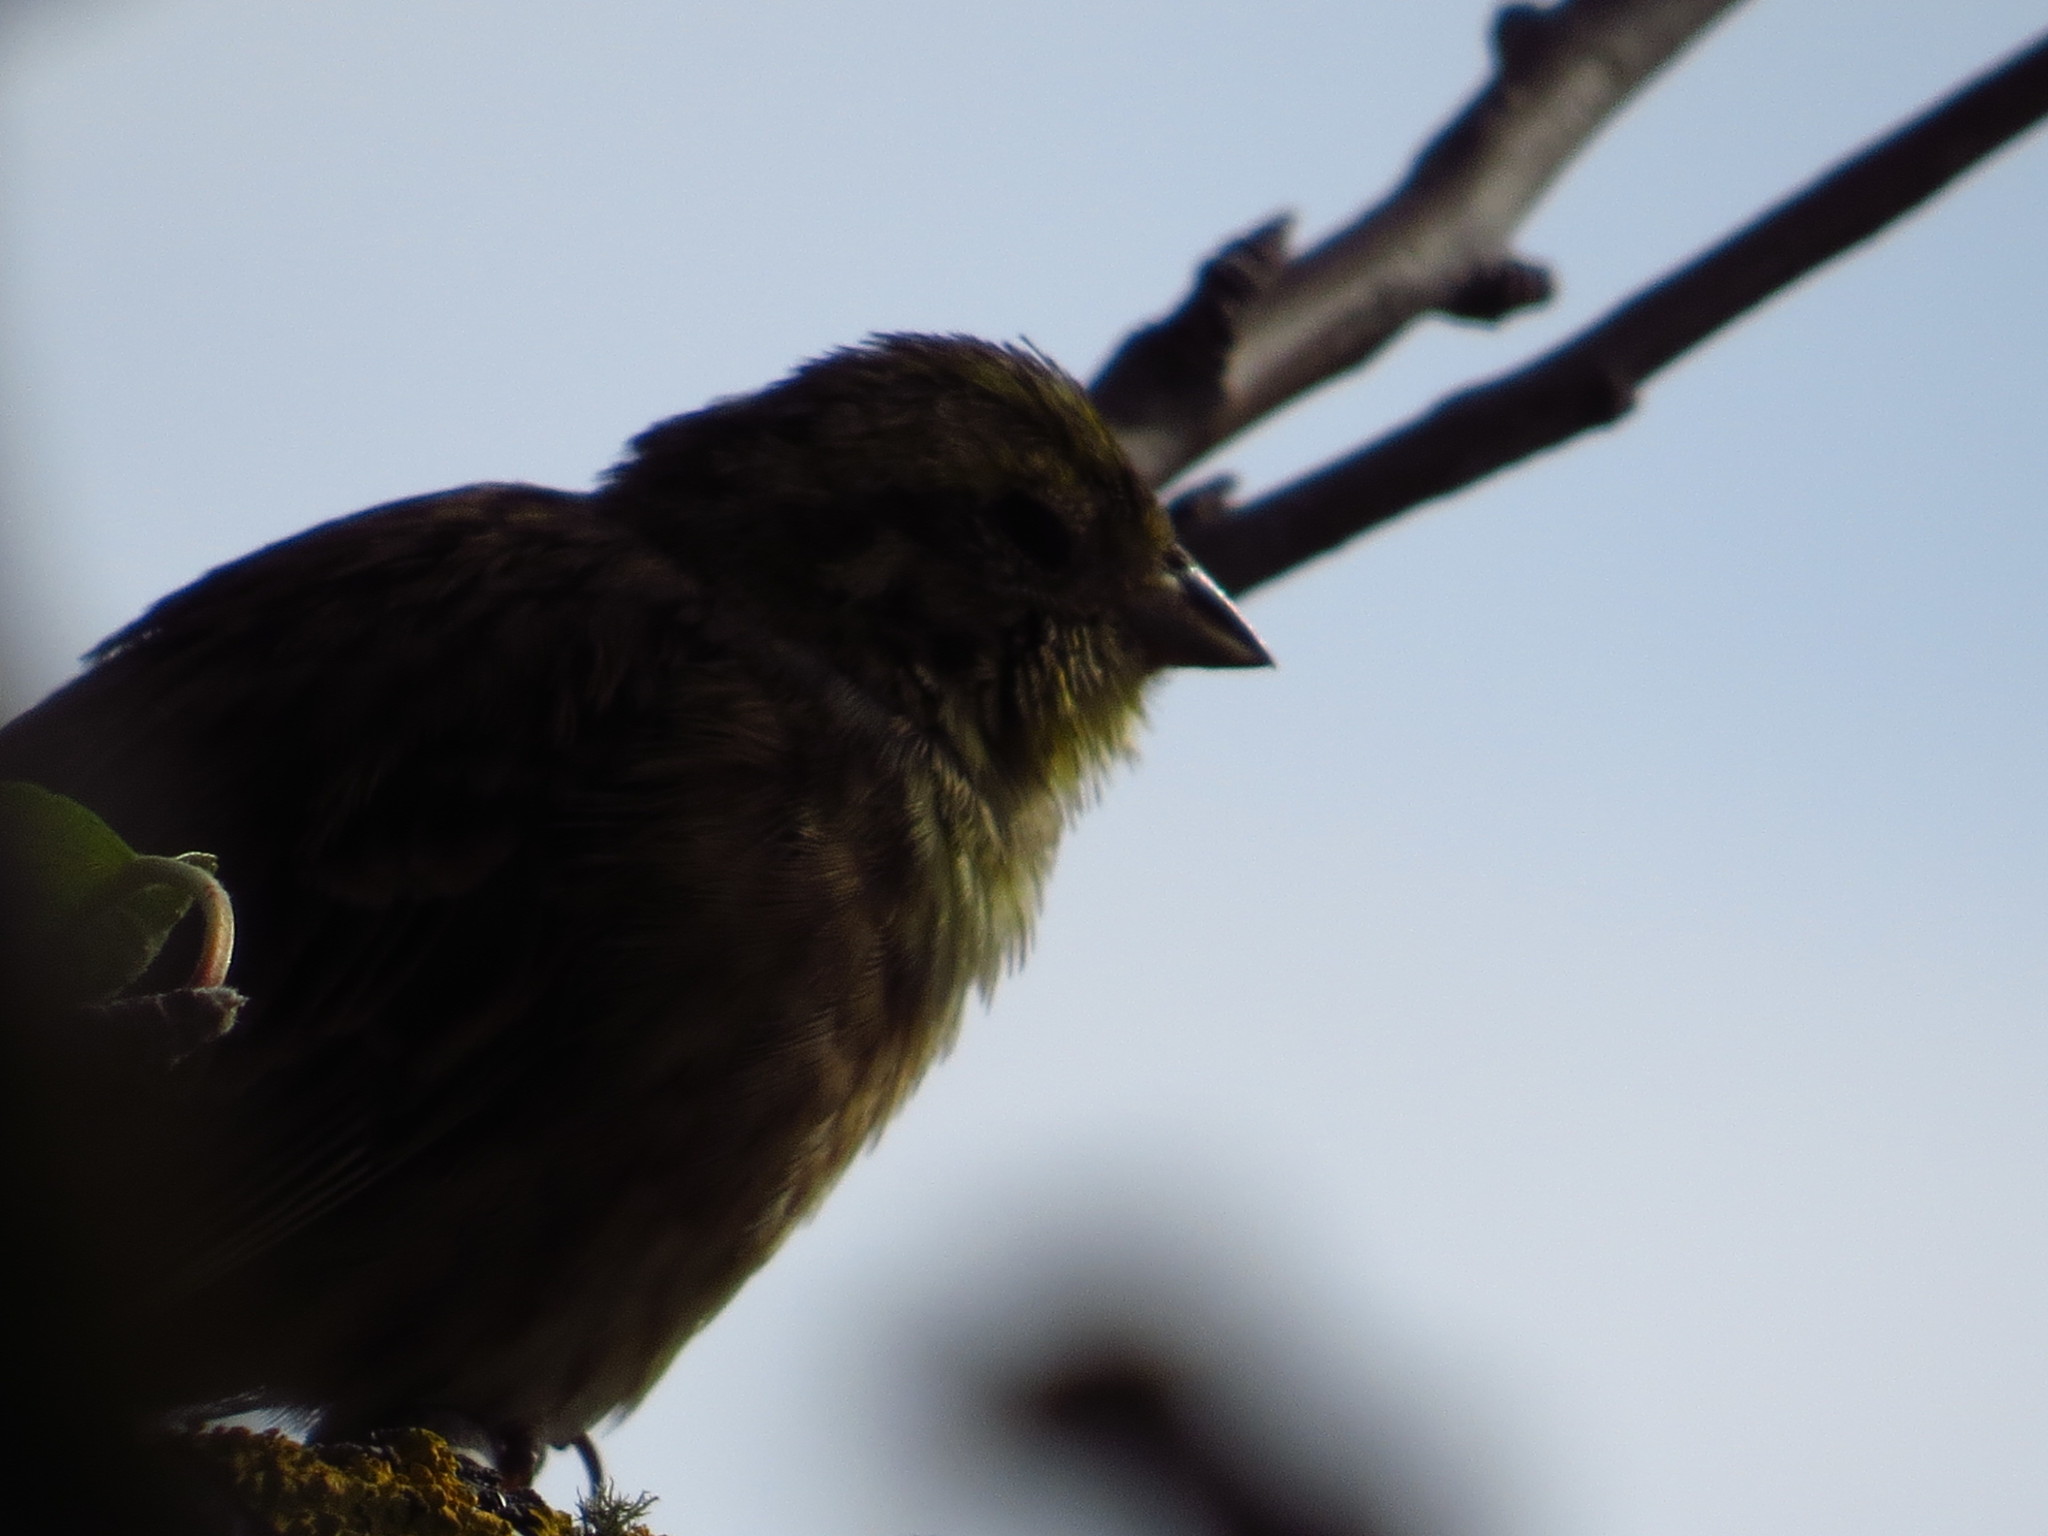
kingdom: Animalia
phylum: Chordata
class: Aves
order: Passeriformes
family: Emberizidae
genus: Emberiza
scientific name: Emberiza cirlus
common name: Cirl bunting
